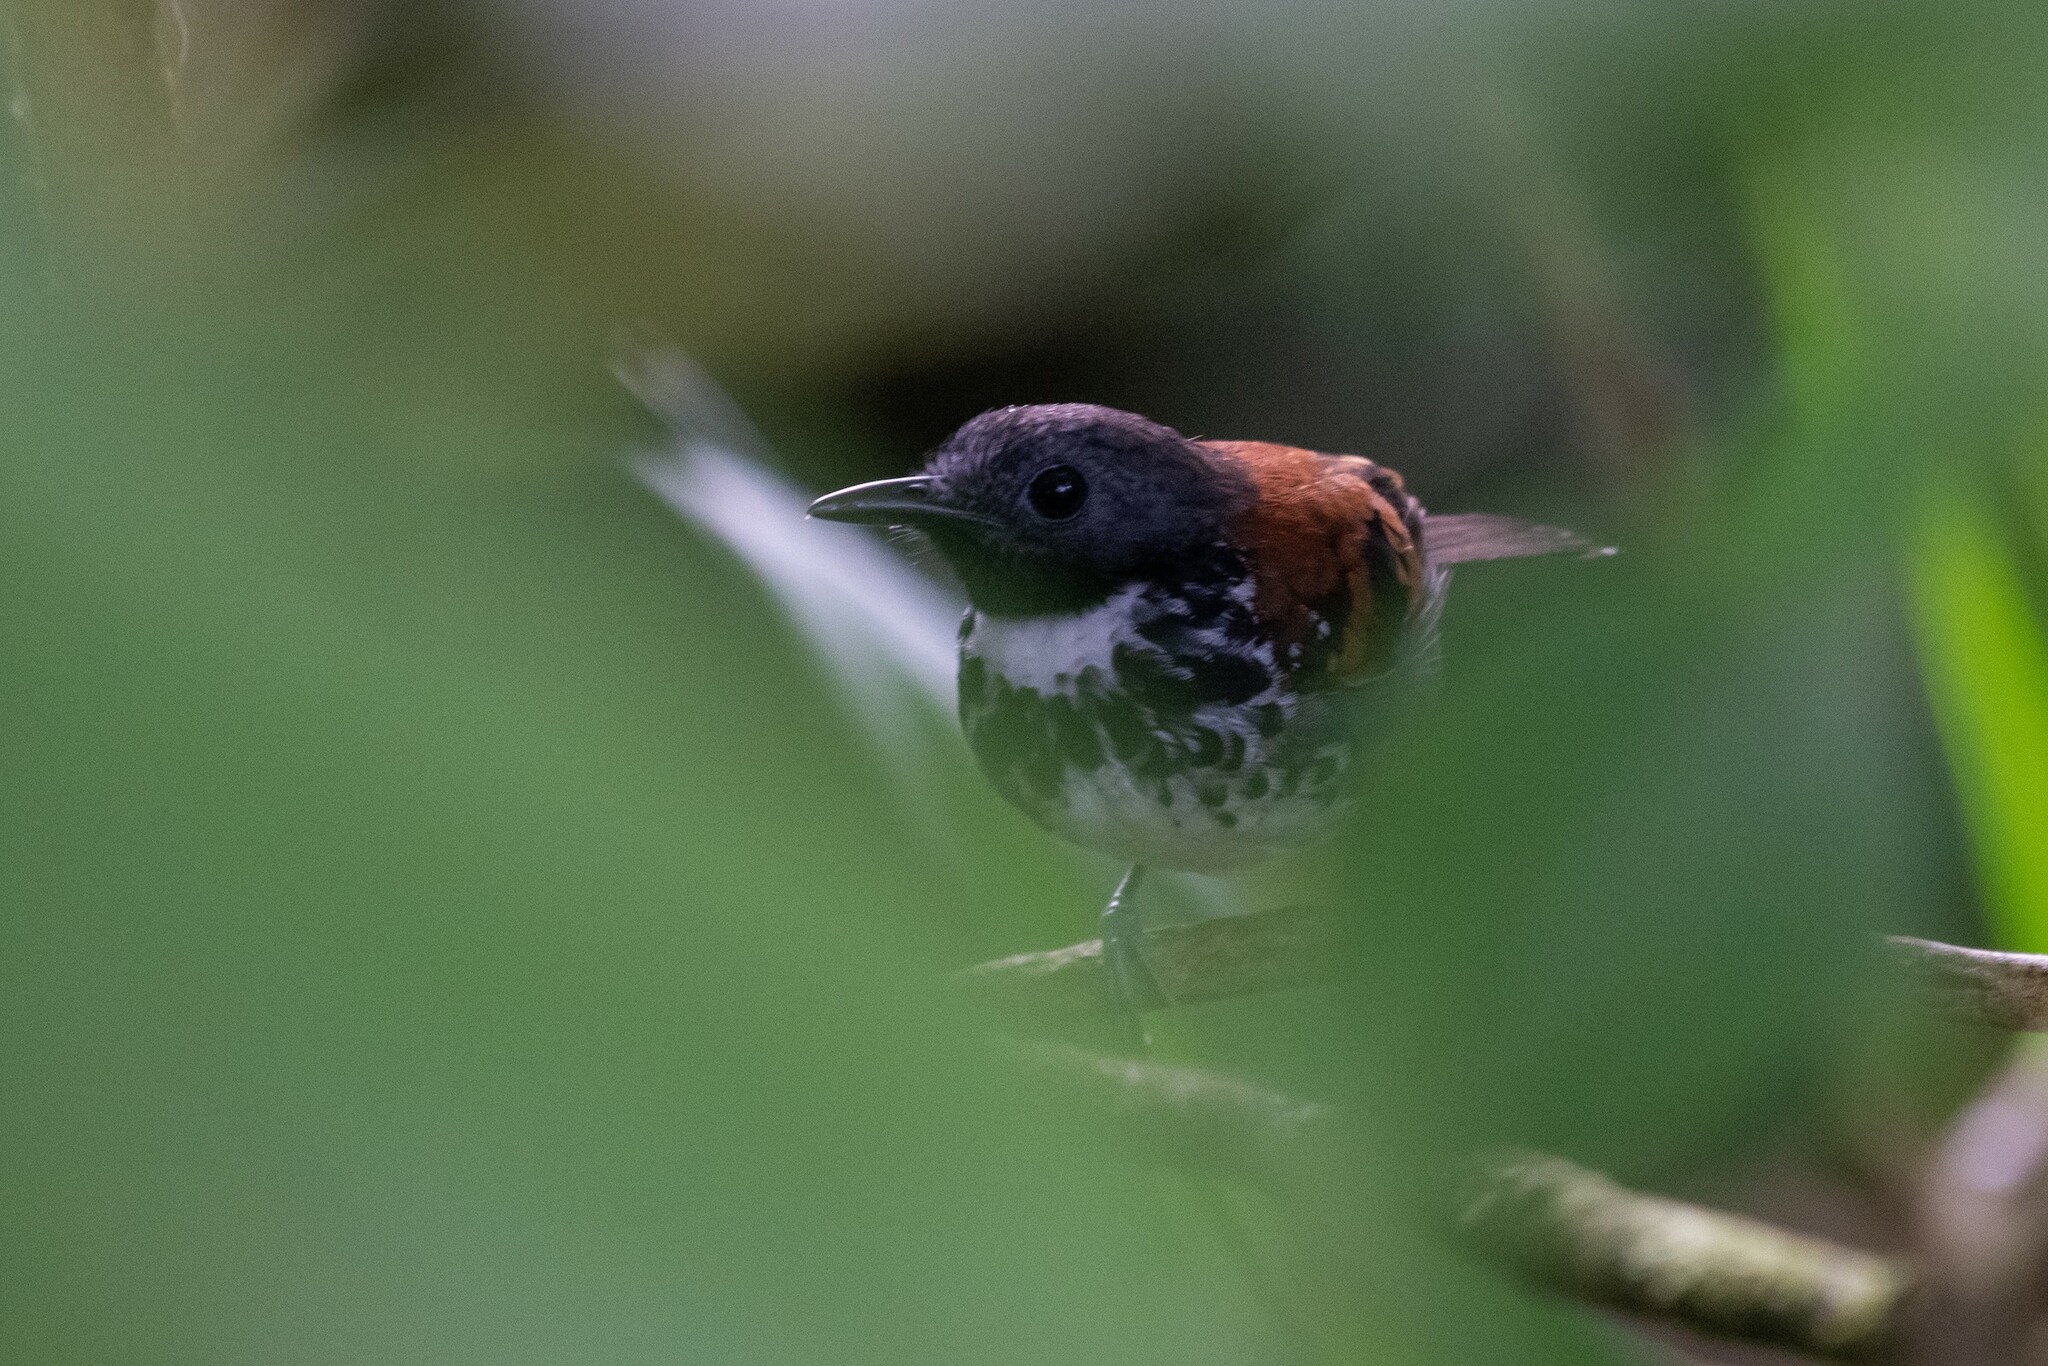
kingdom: Animalia
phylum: Chordata
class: Aves
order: Passeriformes
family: Thamnophilidae
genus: Hylophylax
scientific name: Hylophylax naevioides
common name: Spotted antbird
